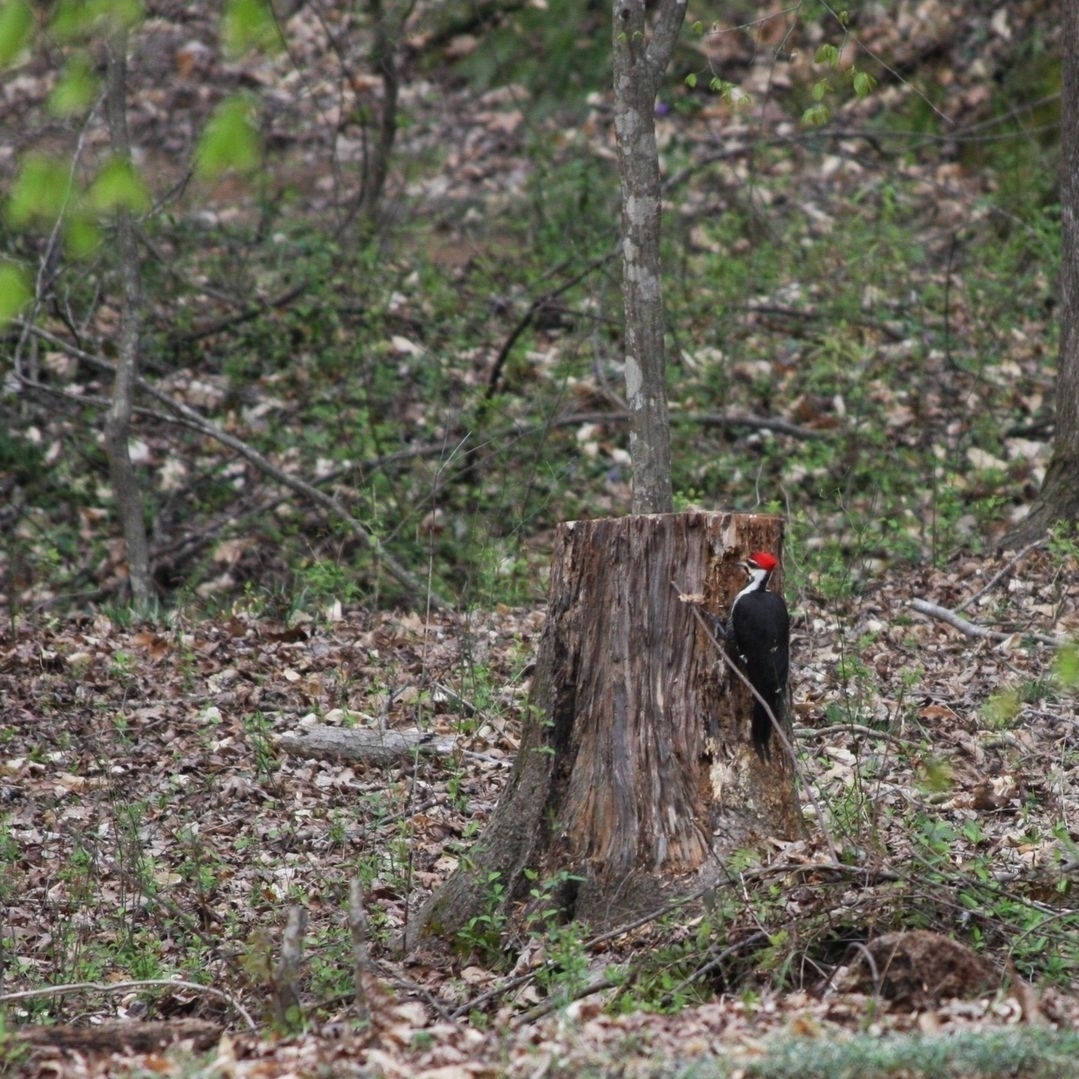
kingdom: Animalia
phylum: Chordata
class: Aves
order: Piciformes
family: Picidae
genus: Dryocopus
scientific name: Dryocopus pileatus
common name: Pileated woodpecker
